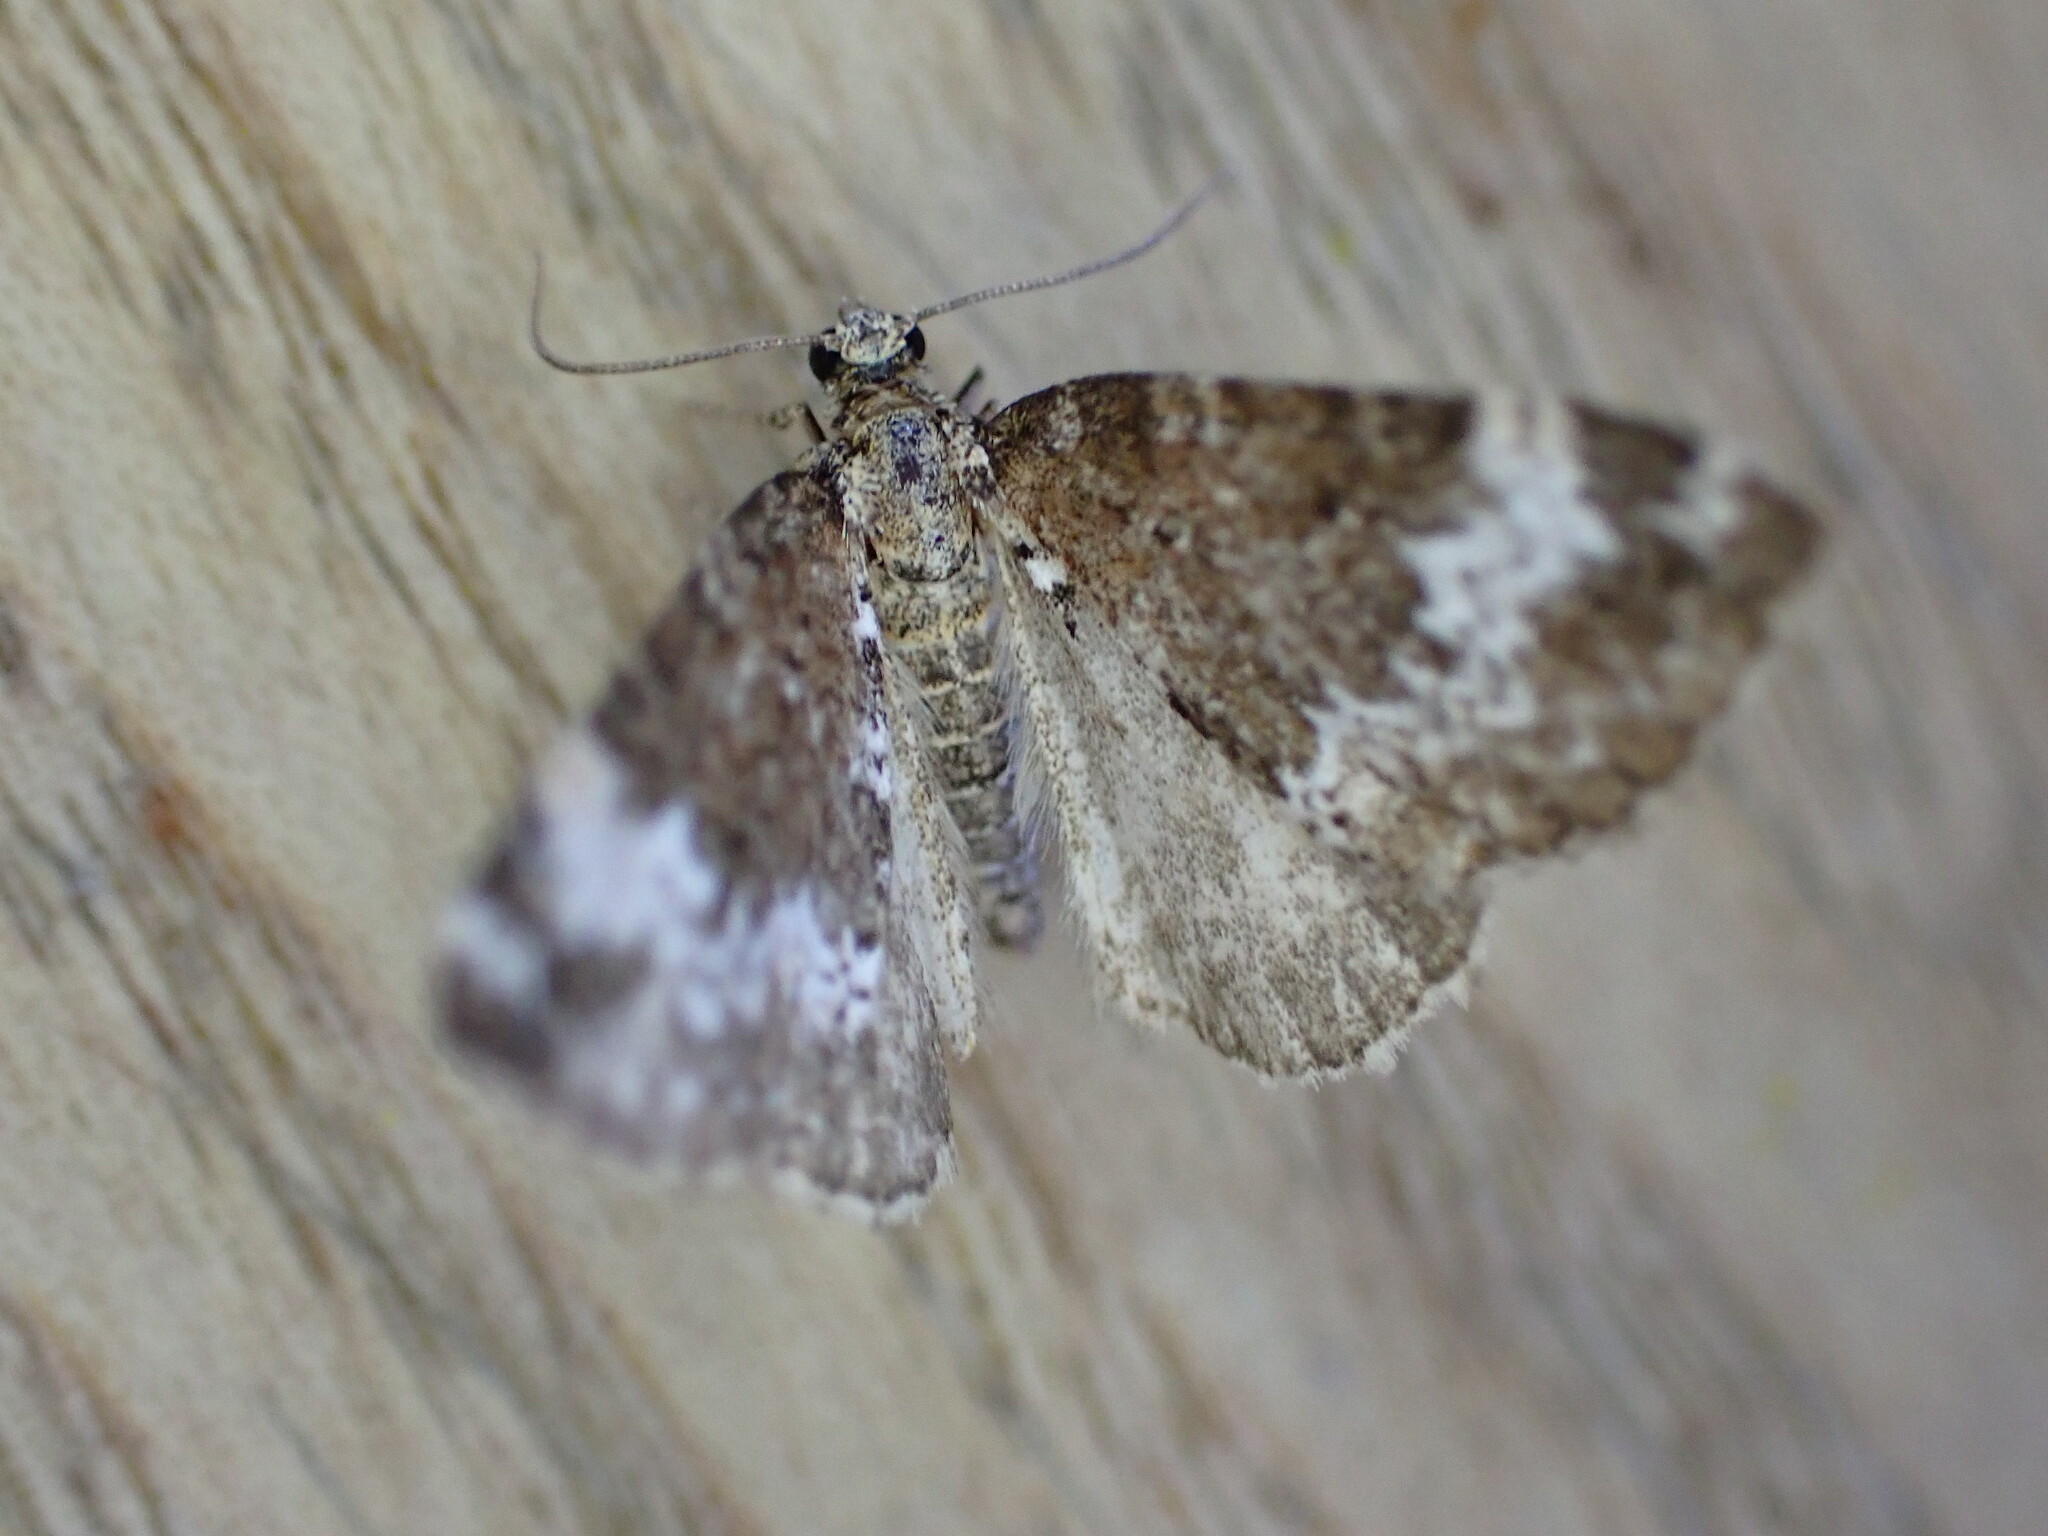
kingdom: Animalia
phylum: Arthropoda
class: Insecta
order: Lepidoptera
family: Geometridae
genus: Perizoma
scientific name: Perizoma alchemillata
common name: Small rivulet
